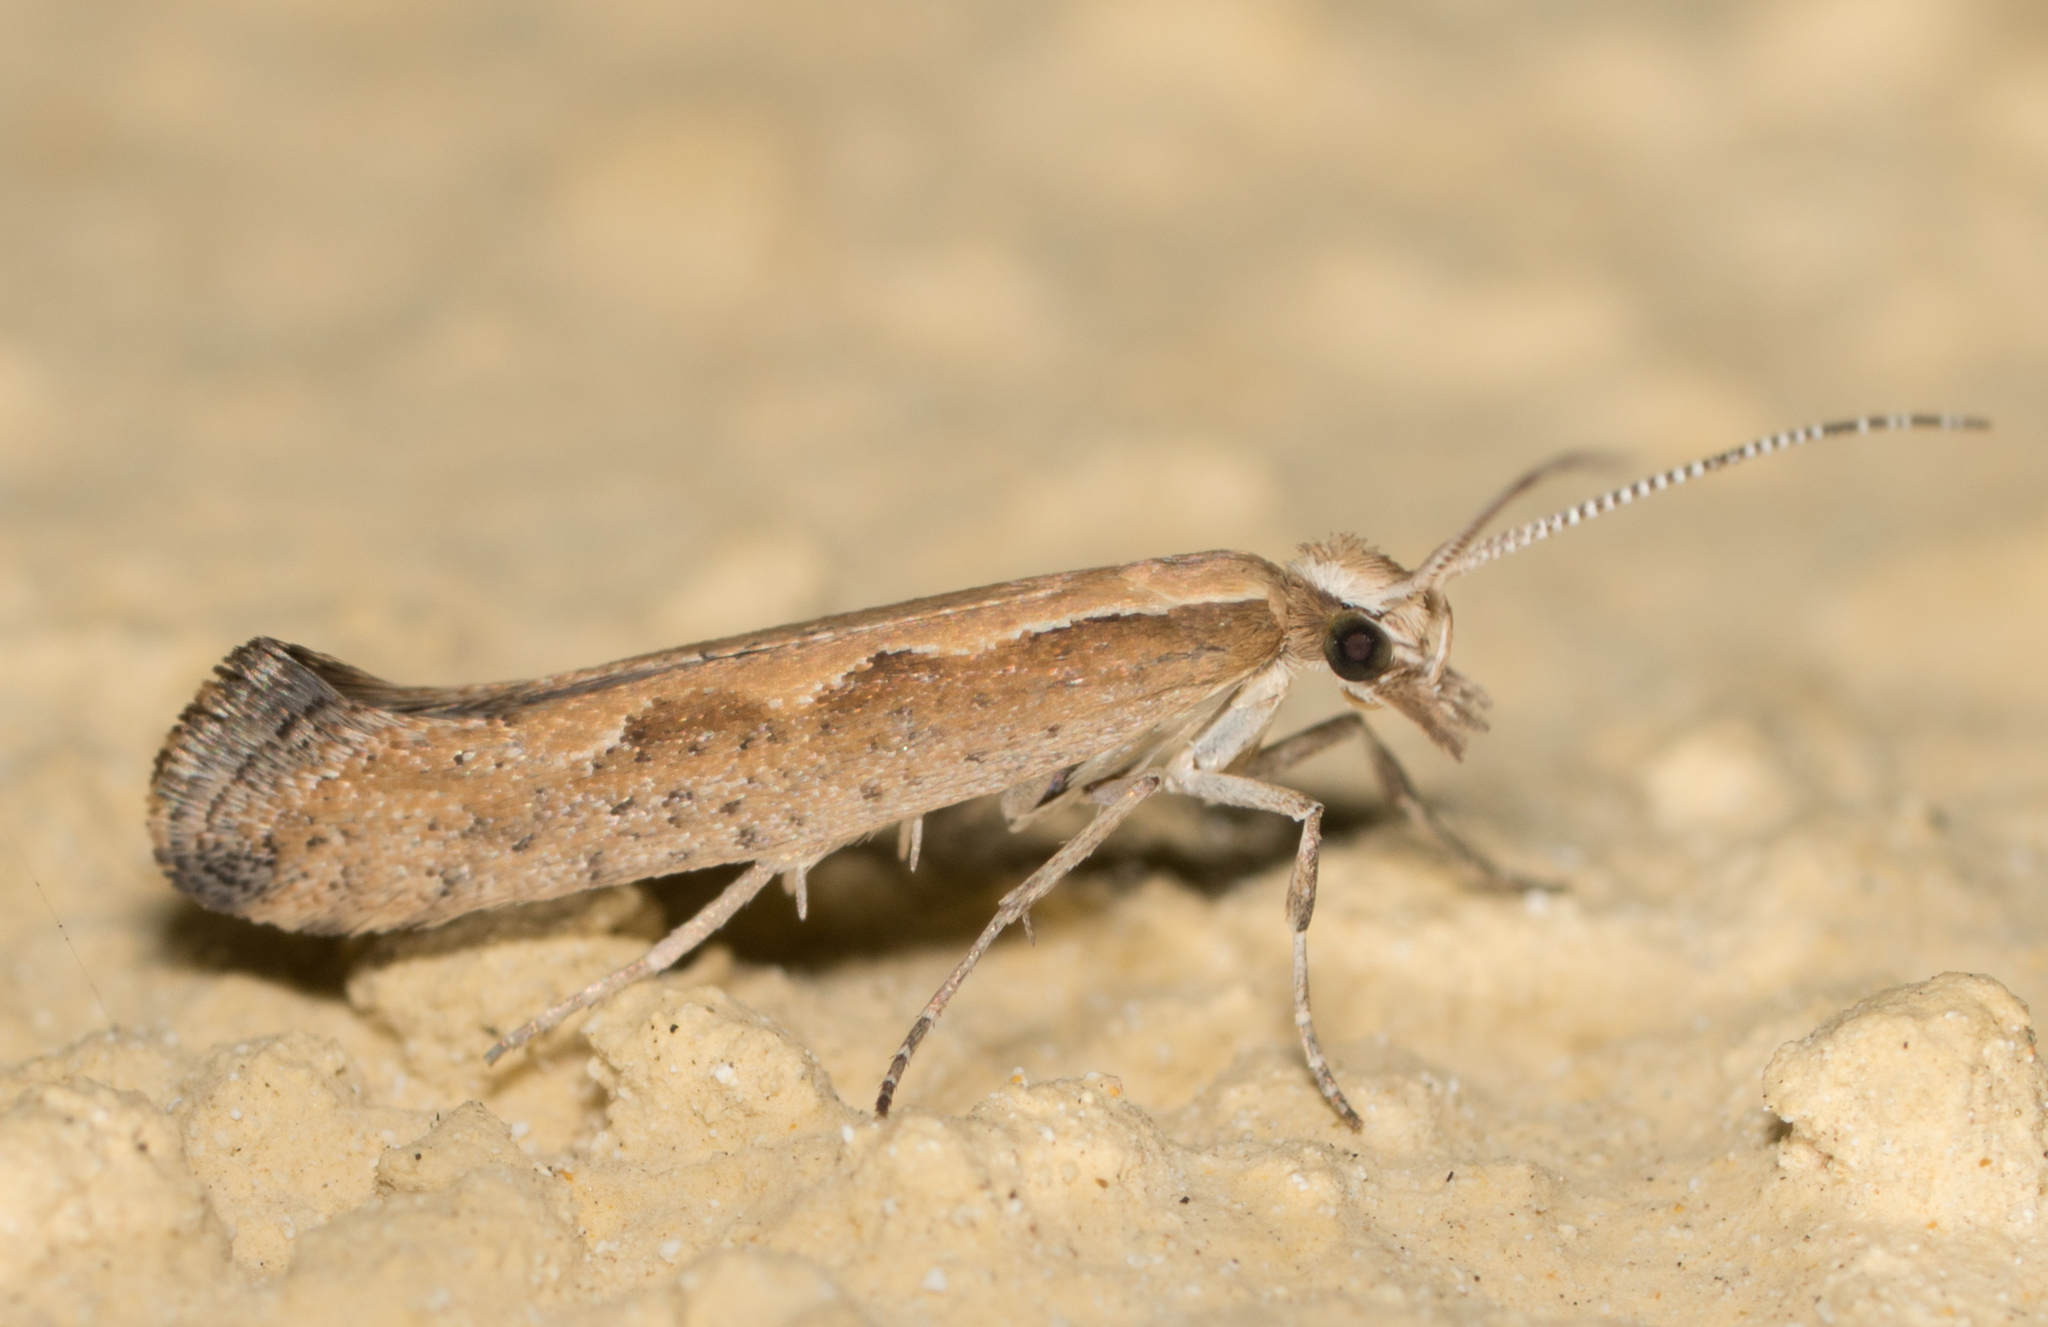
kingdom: Animalia
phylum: Arthropoda
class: Insecta
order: Lepidoptera
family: Plutellidae
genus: Plutella
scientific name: Plutella xylostella
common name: Diamond-back moth
